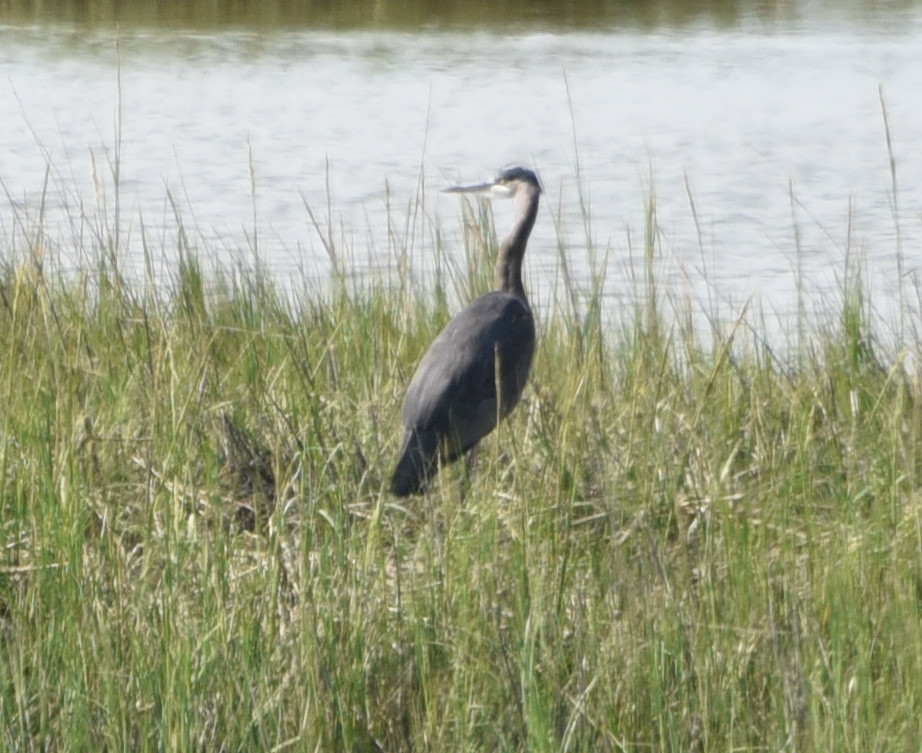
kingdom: Animalia
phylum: Chordata
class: Aves
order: Pelecaniformes
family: Ardeidae
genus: Ardea
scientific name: Ardea herodias
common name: Great blue heron
